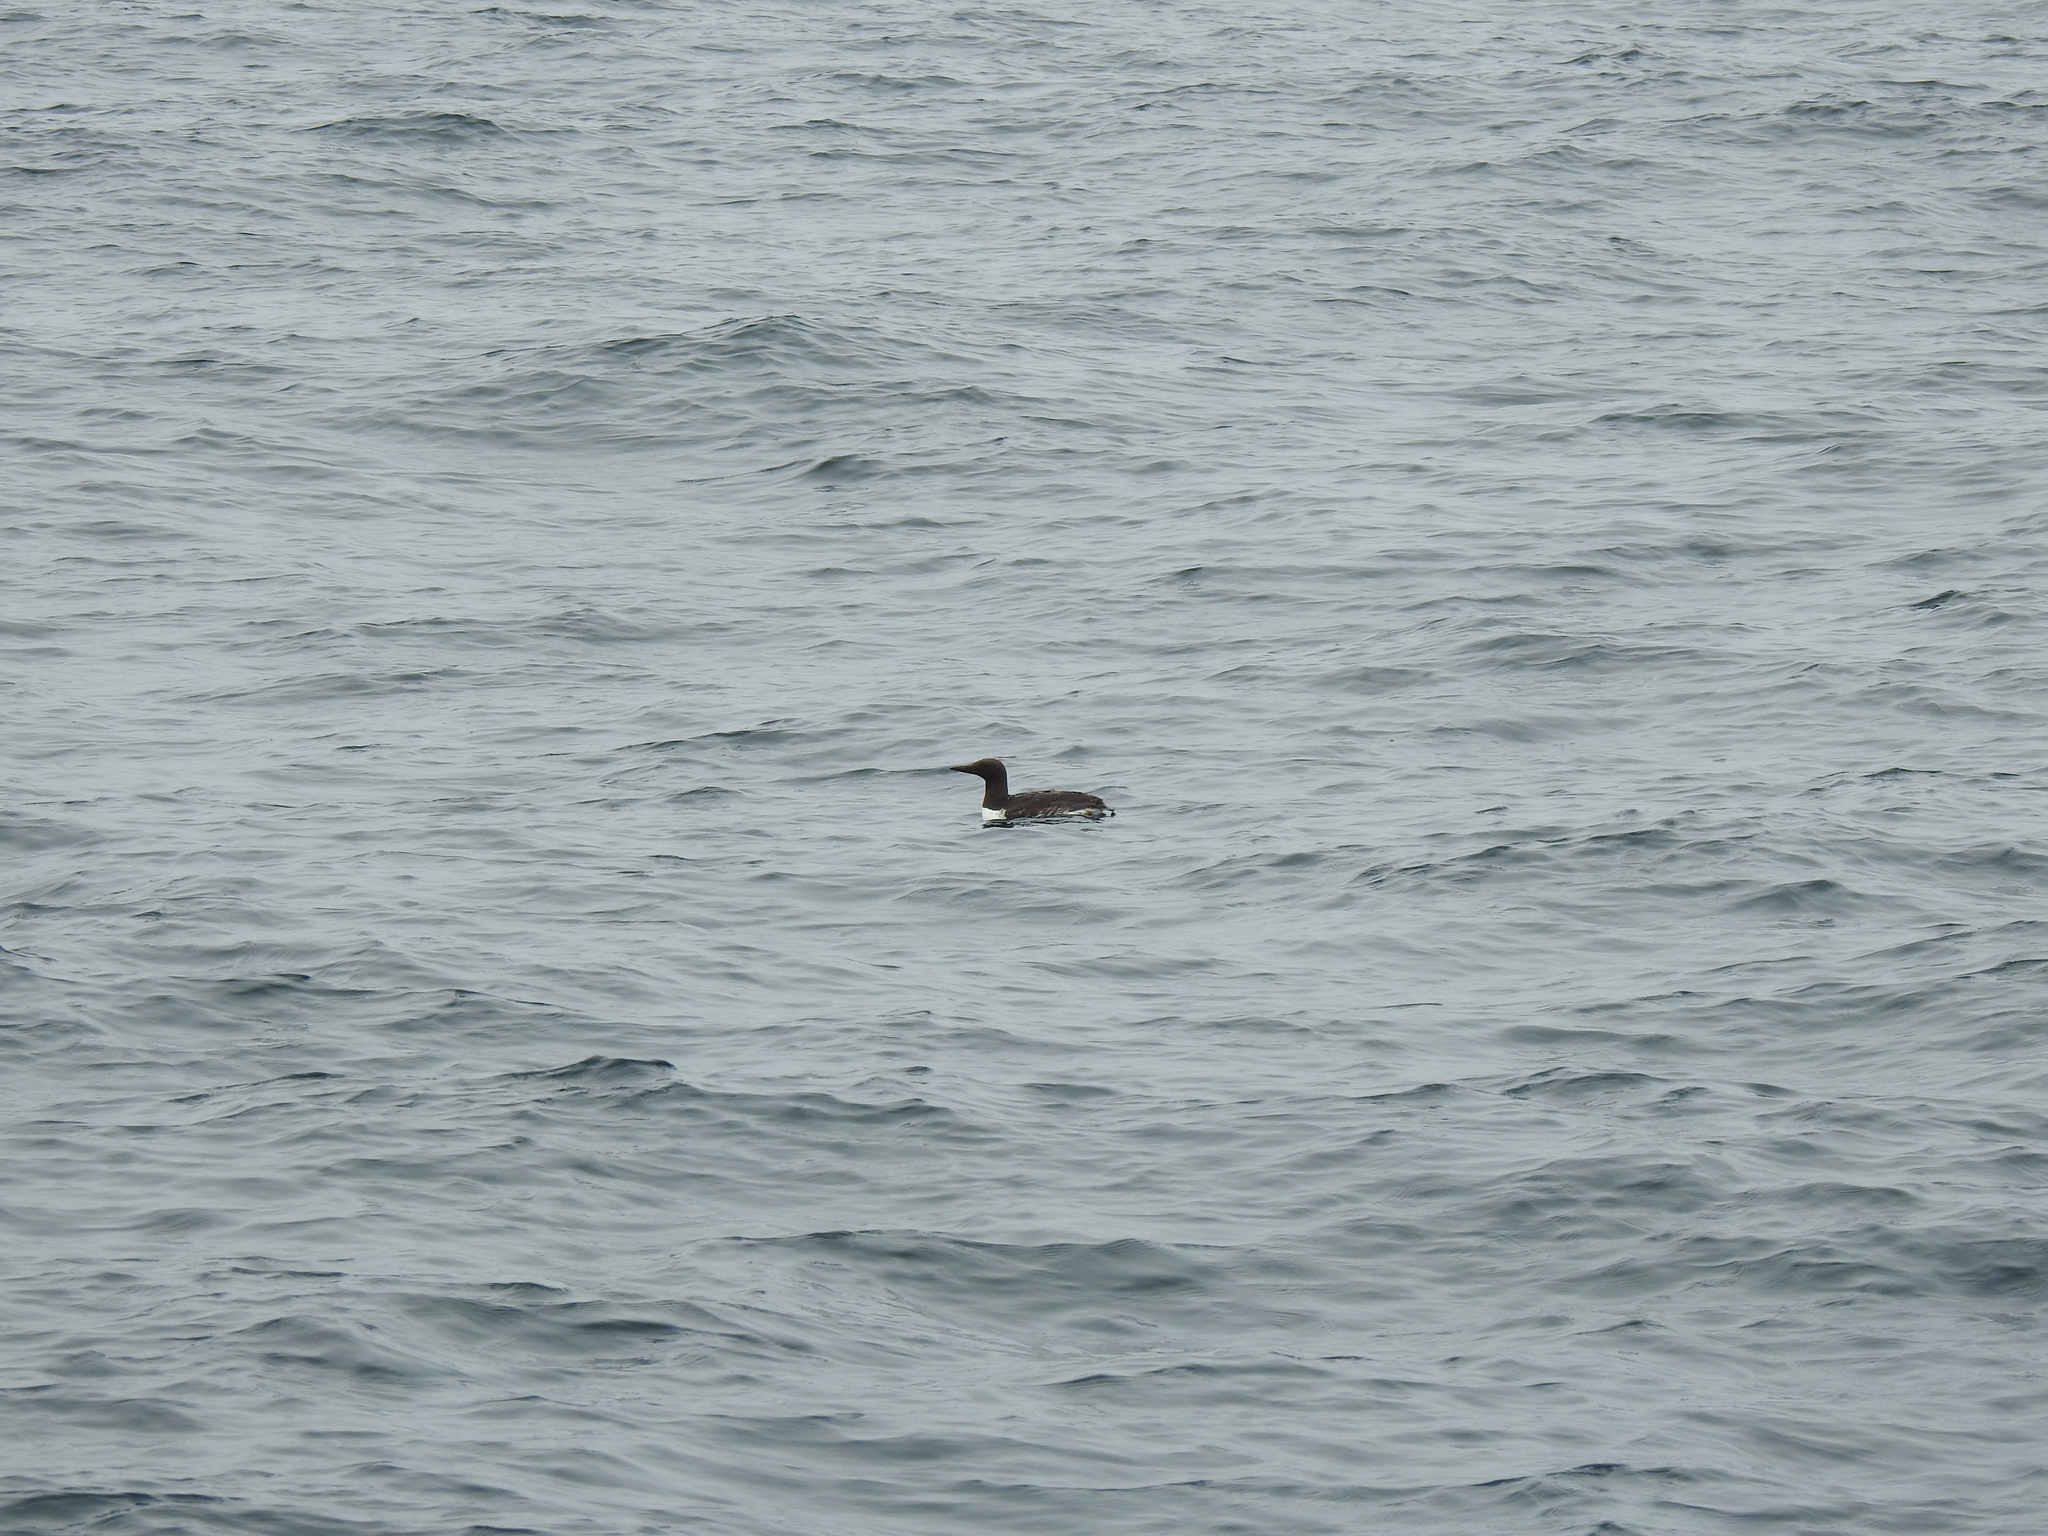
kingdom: Animalia
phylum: Chordata
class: Aves
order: Charadriiformes
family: Alcidae
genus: Uria
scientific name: Uria aalge
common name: Common murre
